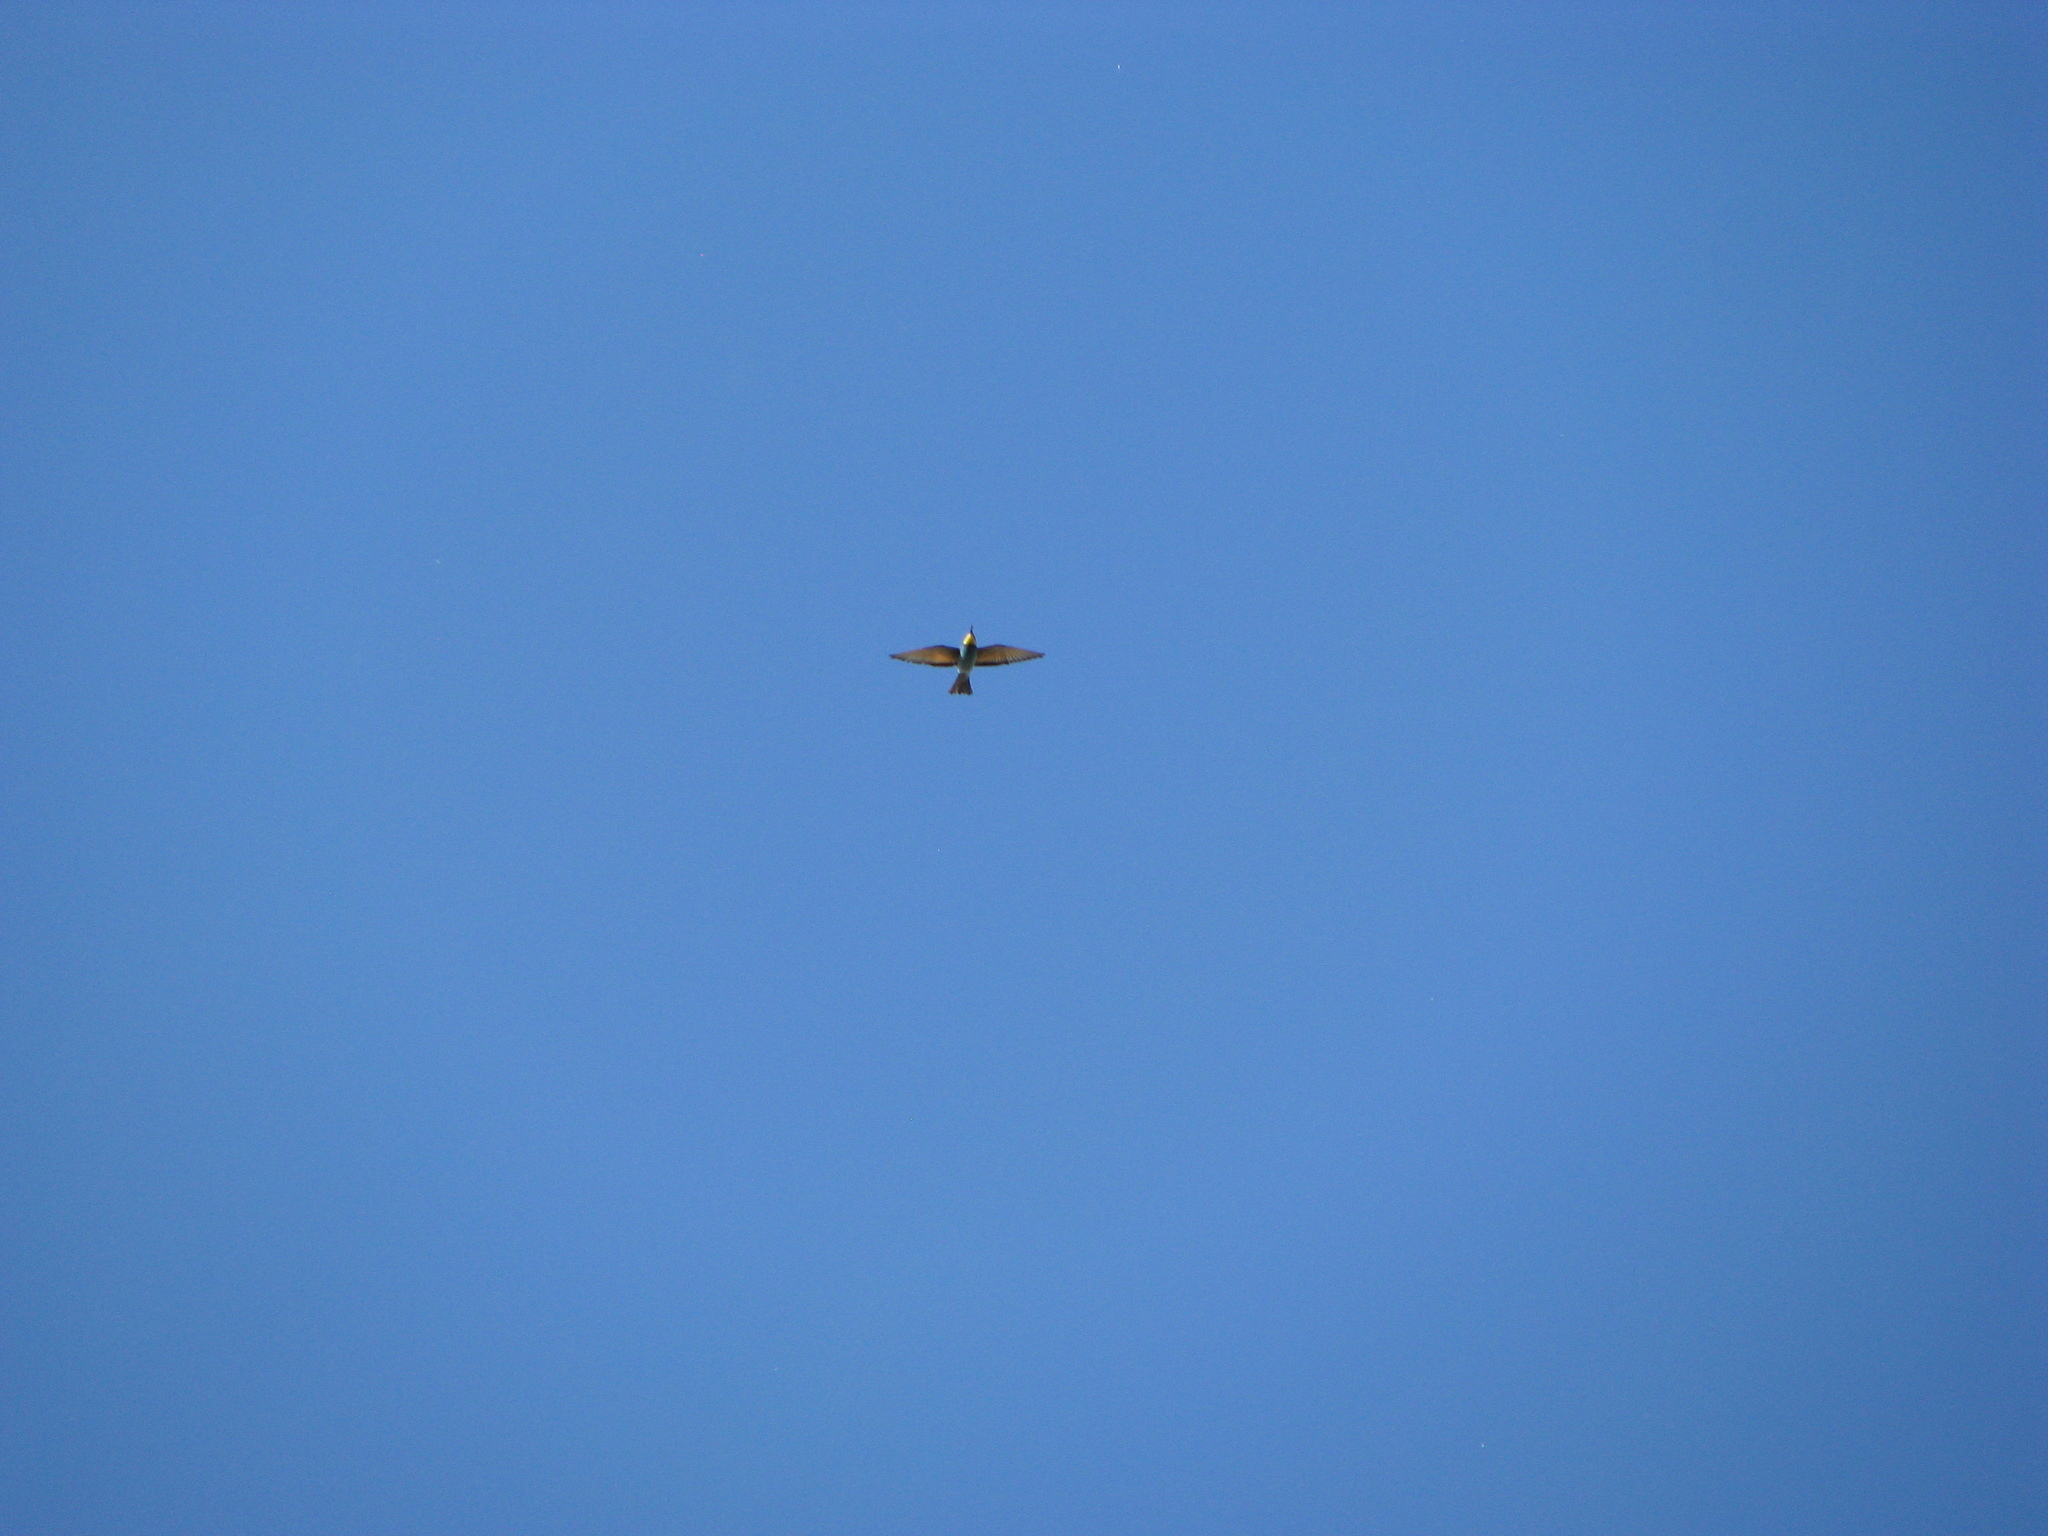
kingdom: Animalia
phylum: Chordata
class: Aves
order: Coraciiformes
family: Meropidae
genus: Merops
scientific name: Merops apiaster
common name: European bee-eater
